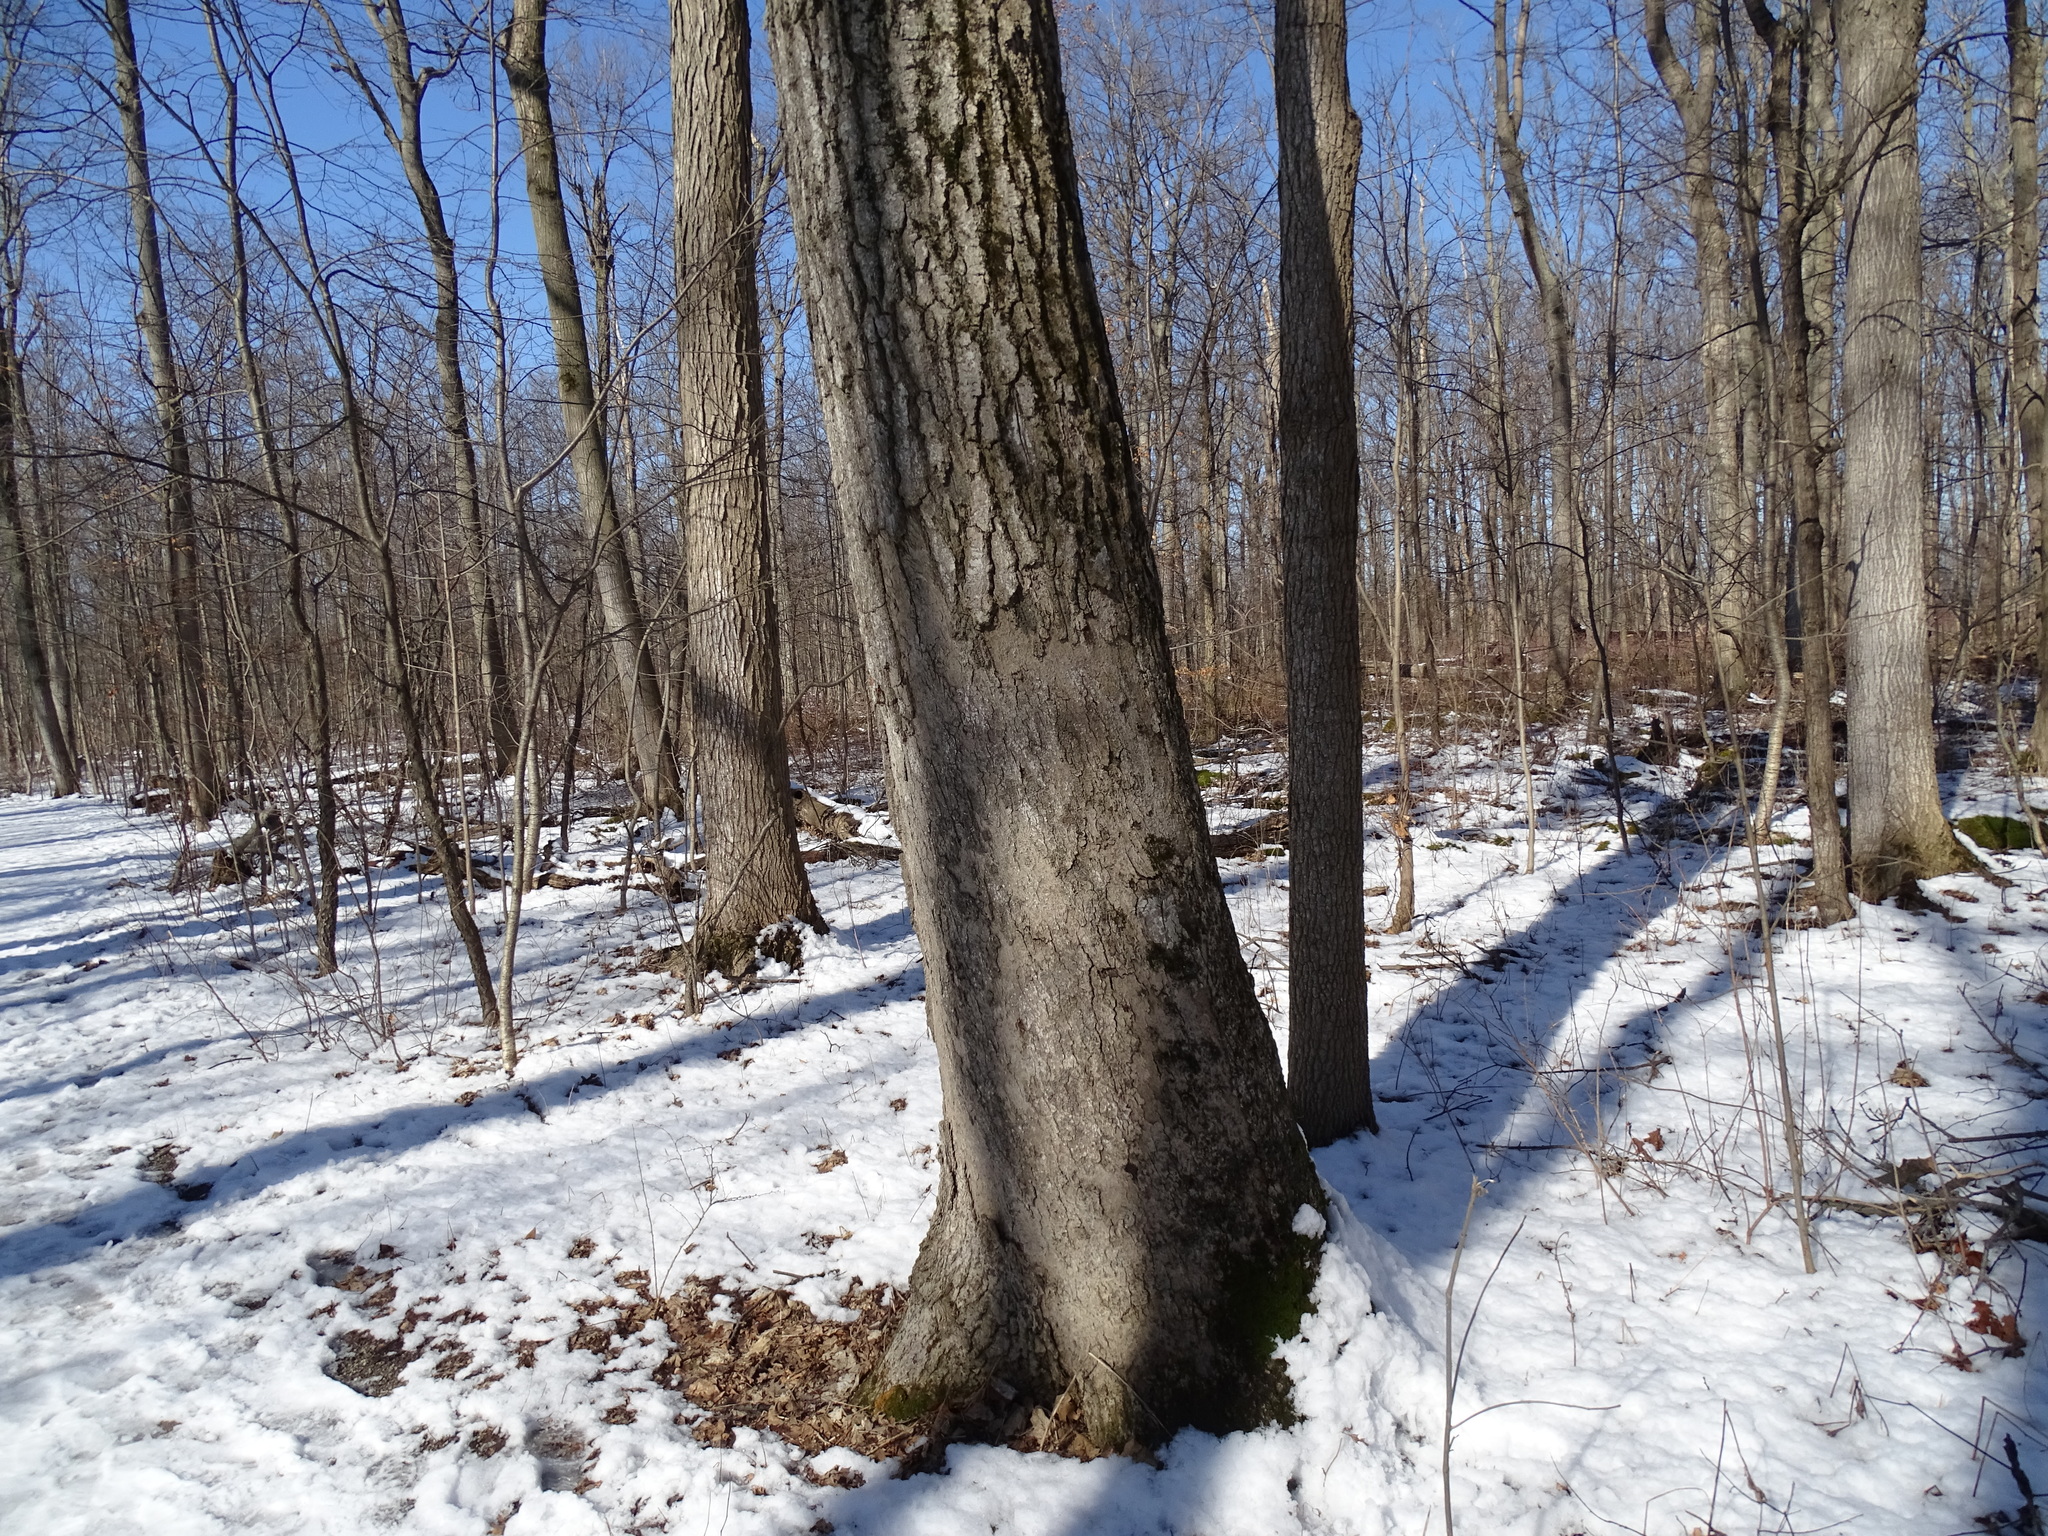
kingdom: Plantae
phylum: Tracheophyta
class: Magnoliopsida
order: Fagales
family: Fagaceae
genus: Quercus
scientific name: Quercus rubra
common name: Red oak
